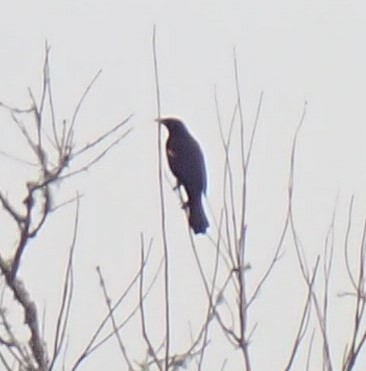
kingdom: Animalia
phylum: Chordata
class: Aves
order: Passeriformes
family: Icteridae
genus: Agelaius
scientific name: Agelaius phoeniceus
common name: Red-winged blackbird
